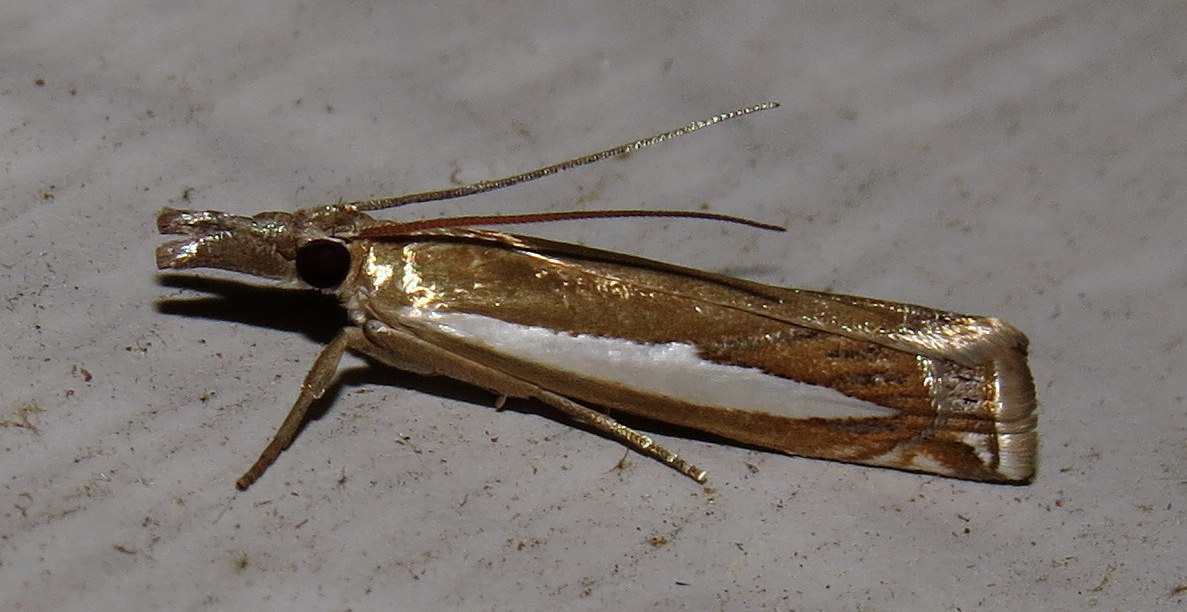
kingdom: Animalia
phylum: Arthropoda
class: Insecta
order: Lepidoptera
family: Crambidae
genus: Crambus
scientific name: Crambus praefectellus
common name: Common grass-veneer
